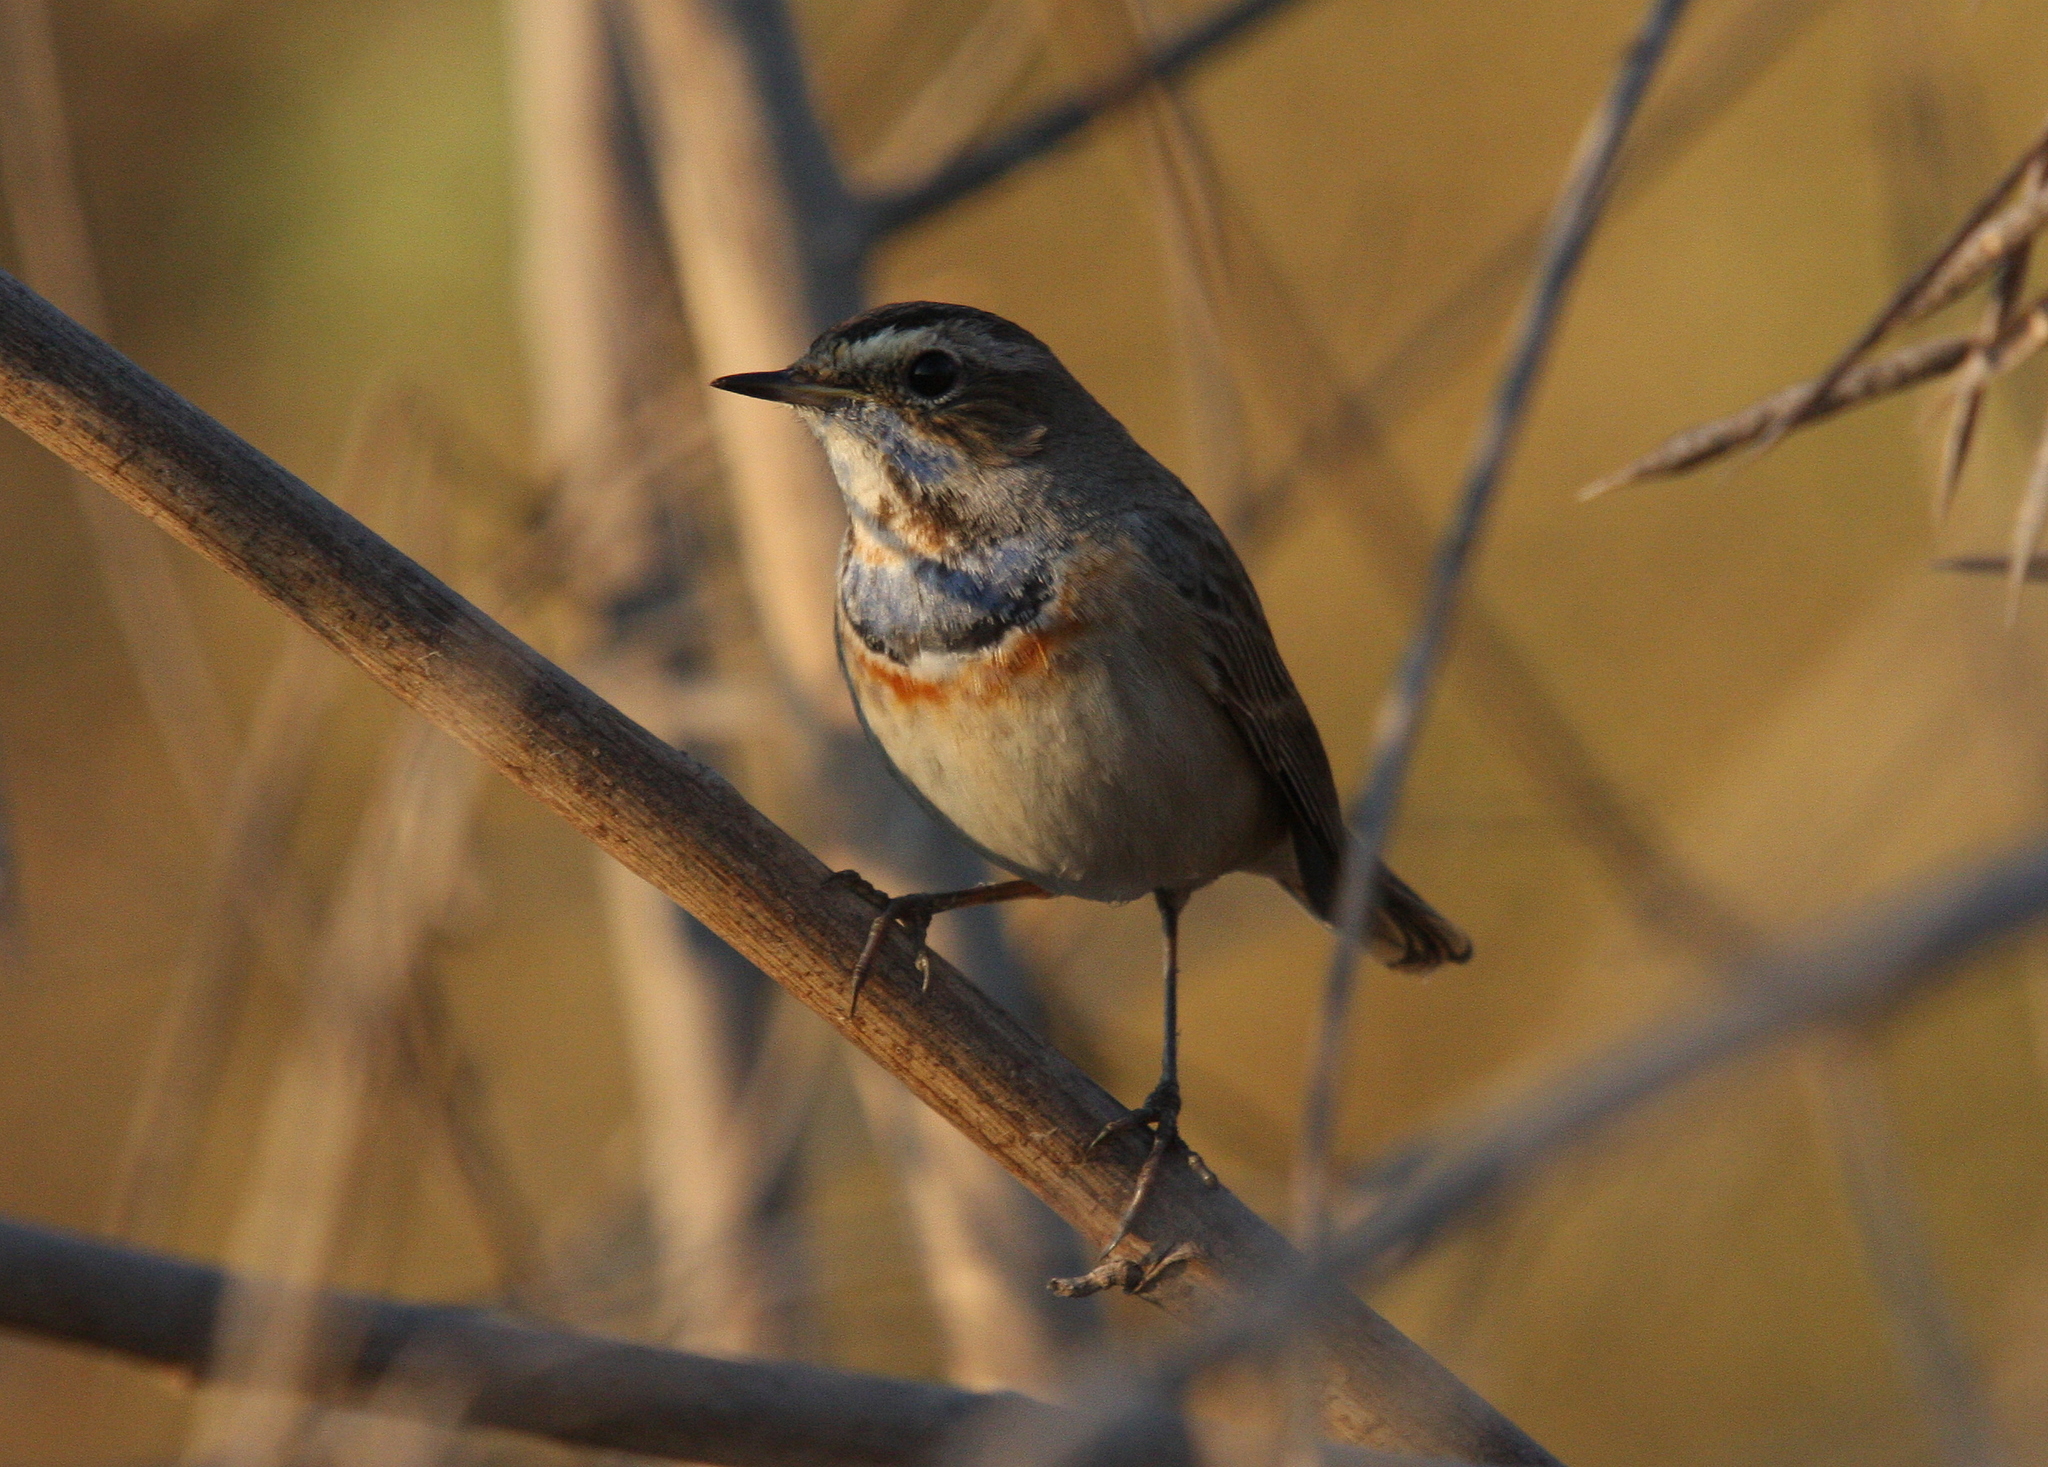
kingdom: Animalia
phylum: Chordata
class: Aves
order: Passeriformes
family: Muscicapidae
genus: Luscinia
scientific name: Luscinia svecica
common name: Bluethroat
